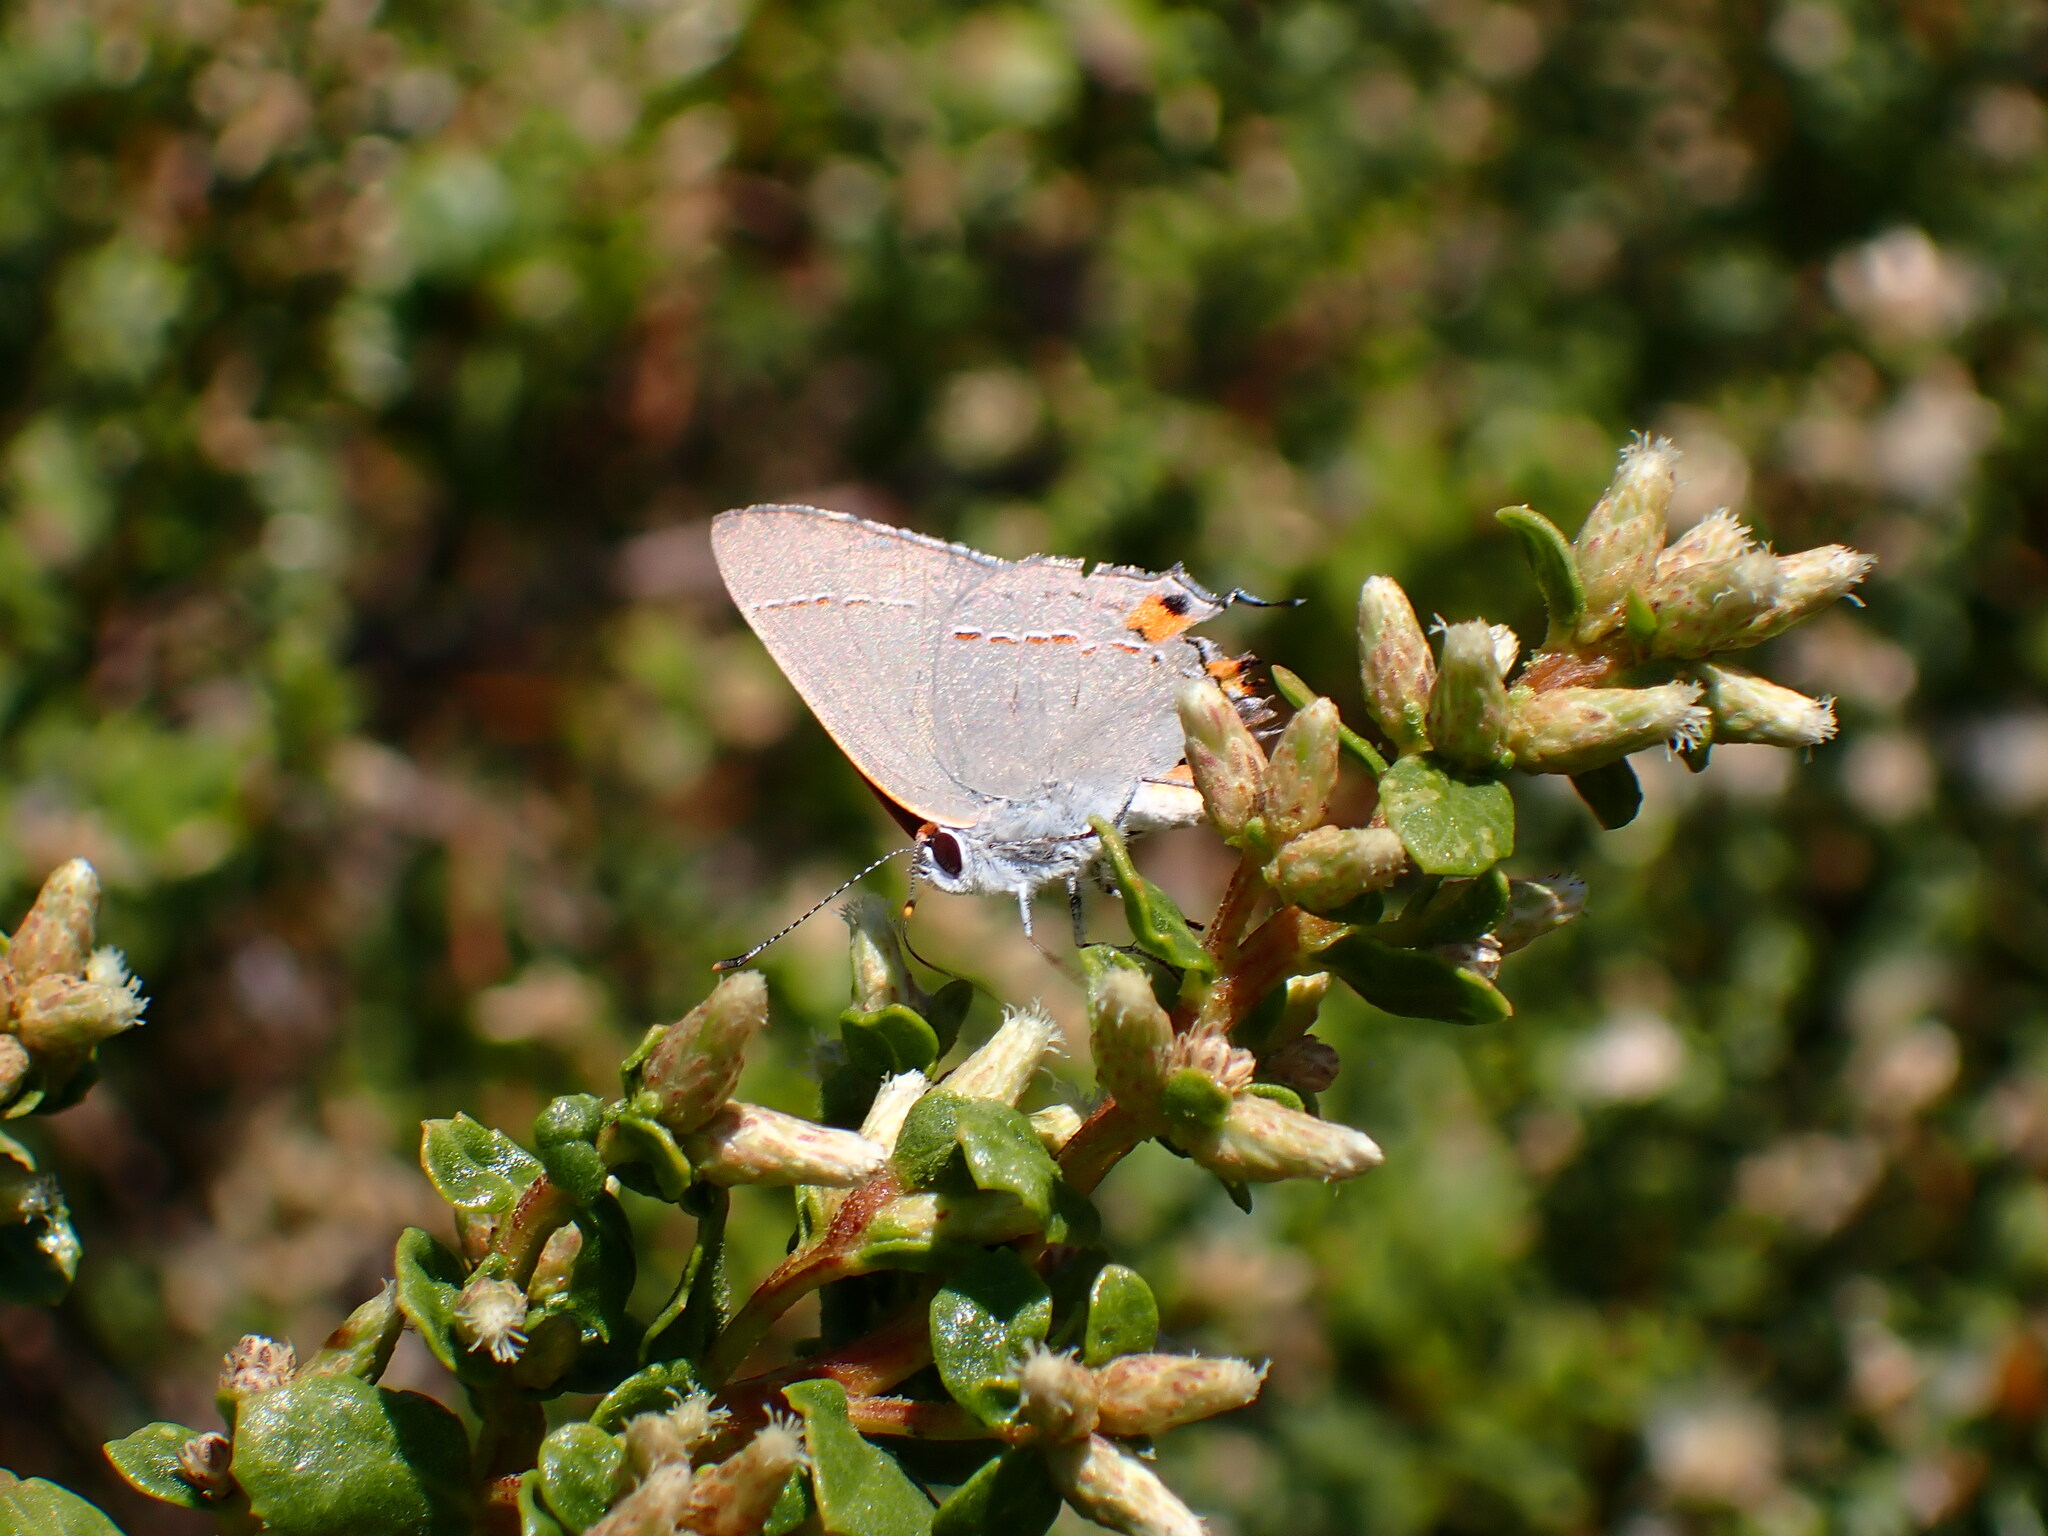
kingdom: Animalia
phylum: Arthropoda
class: Insecta
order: Lepidoptera
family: Lycaenidae
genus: Strymon
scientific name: Strymon melinus
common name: Gray hairstreak
